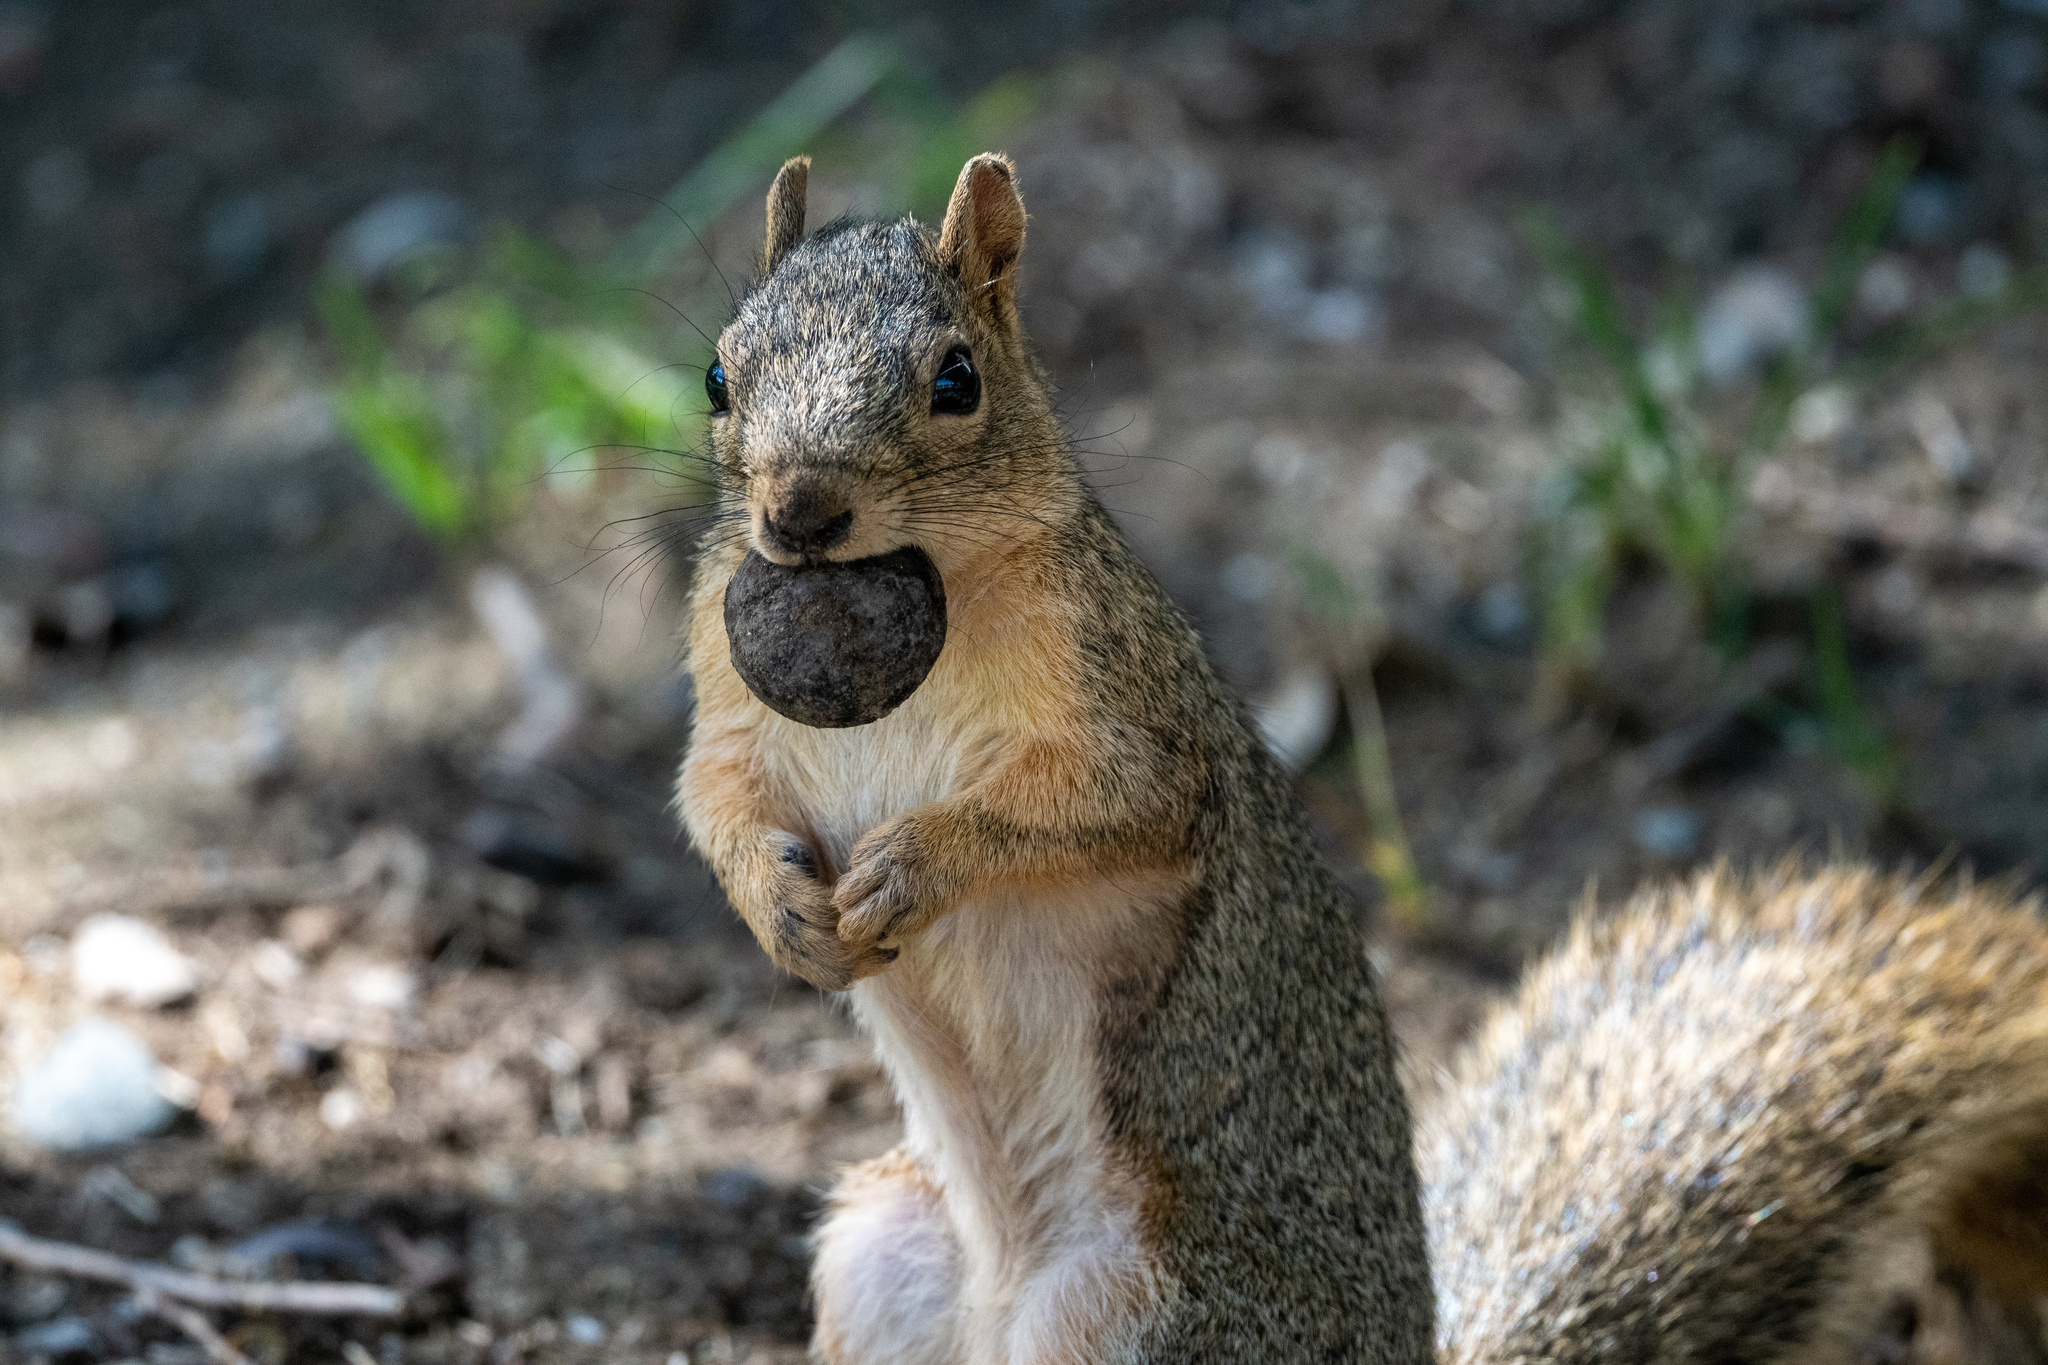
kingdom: Animalia
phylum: Chordata
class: Mammalia
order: Rodentia
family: Sciuridae
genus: Sciurus
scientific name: Sciurus niger
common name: Fox squirrel
